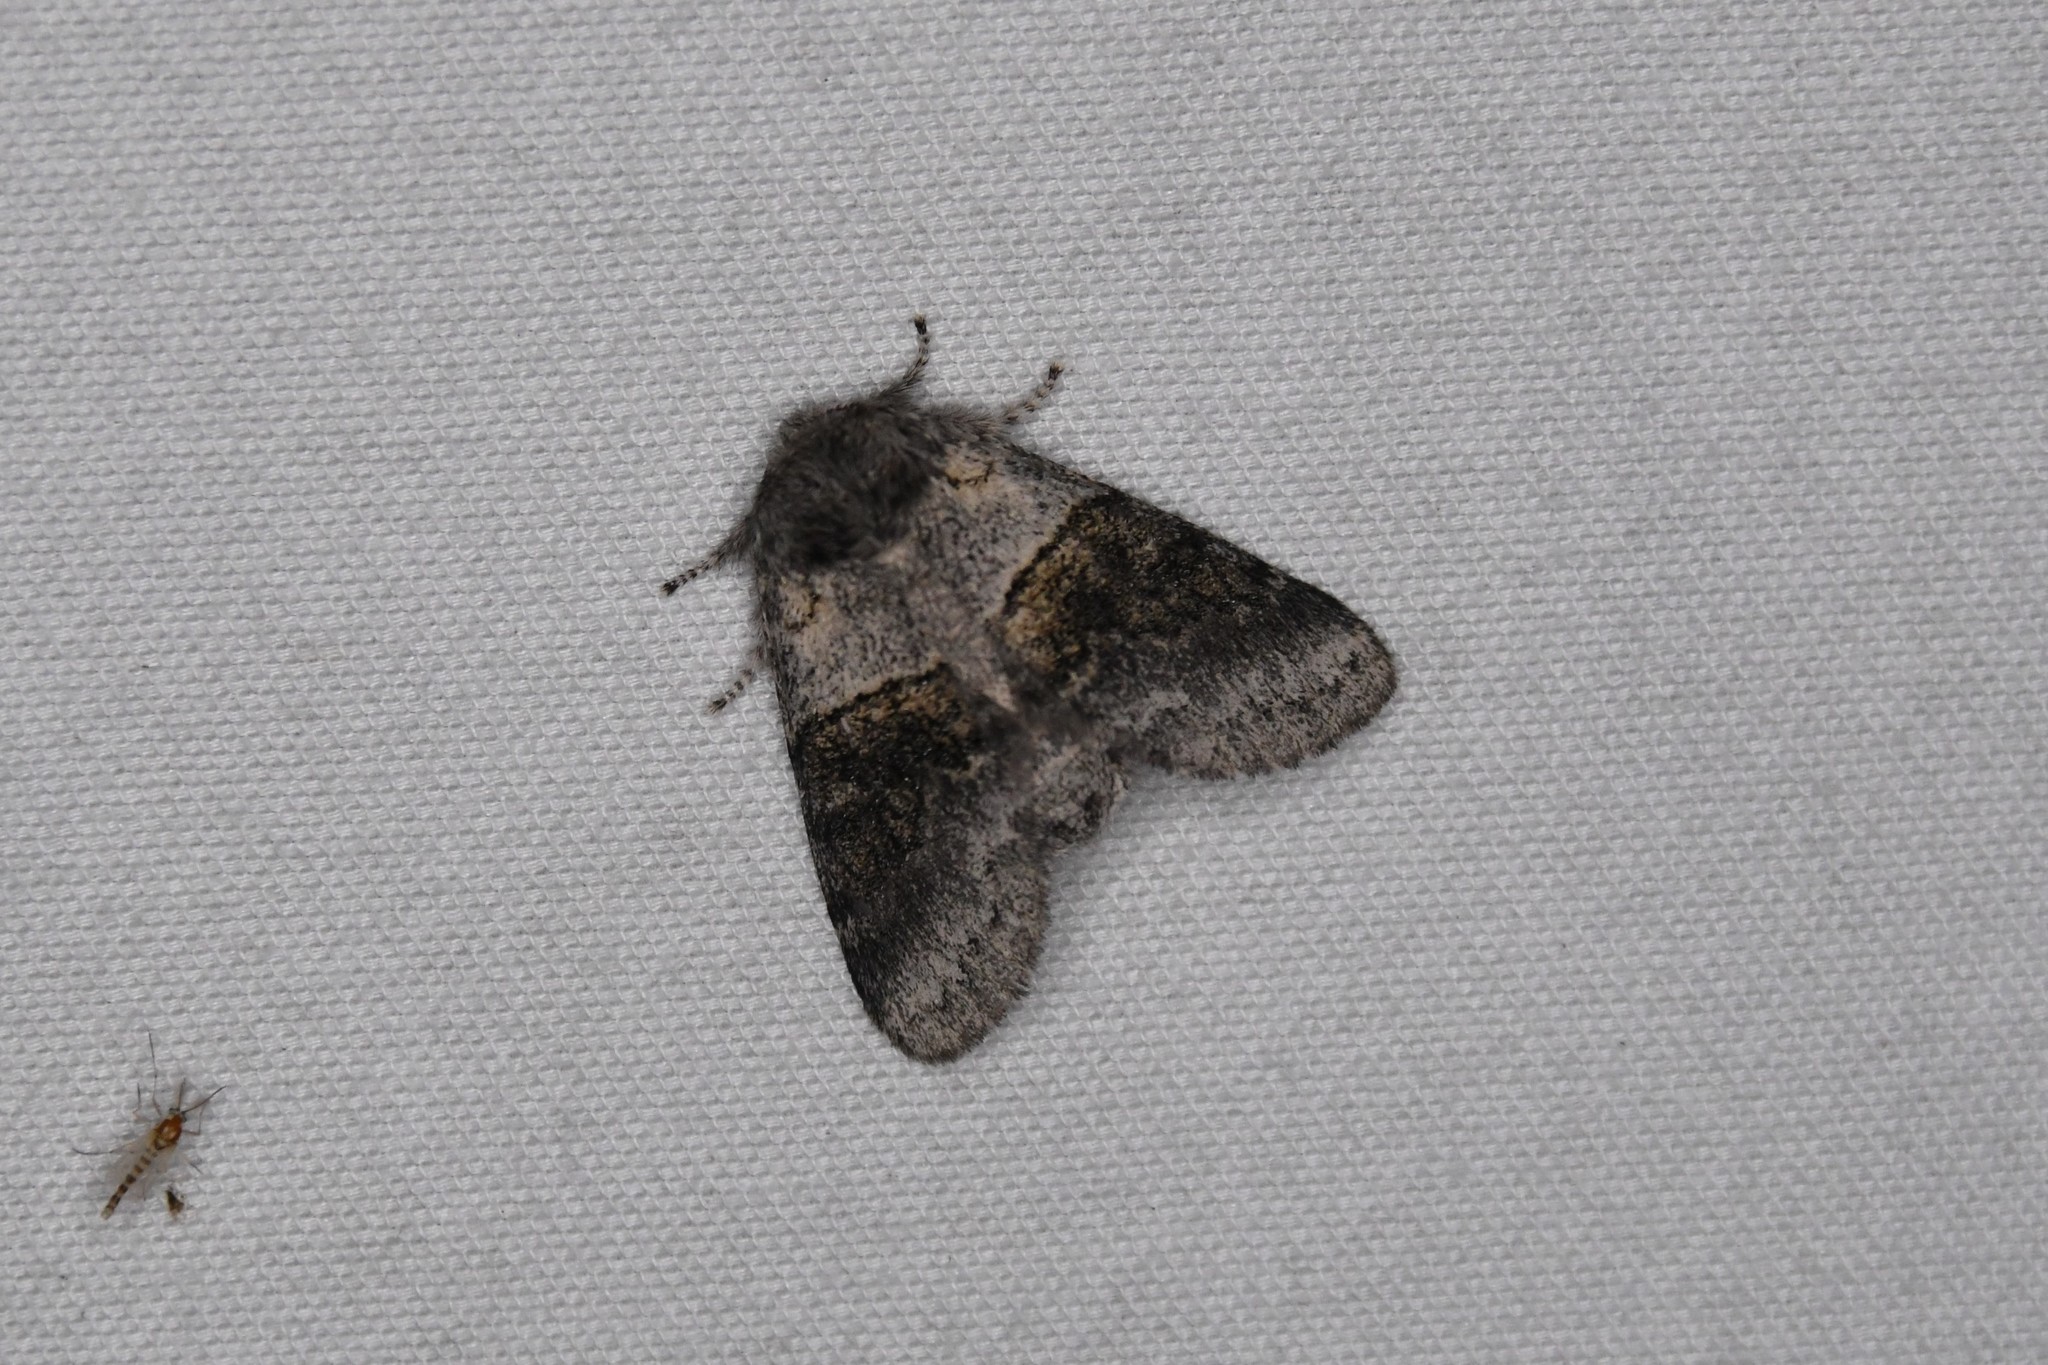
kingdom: Animalia
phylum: Arthropoda
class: Insecta
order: Lepidoptera
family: Notodontidae
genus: Gluphisia
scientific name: Gluphisia septentrionis
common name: Common gluphisia
